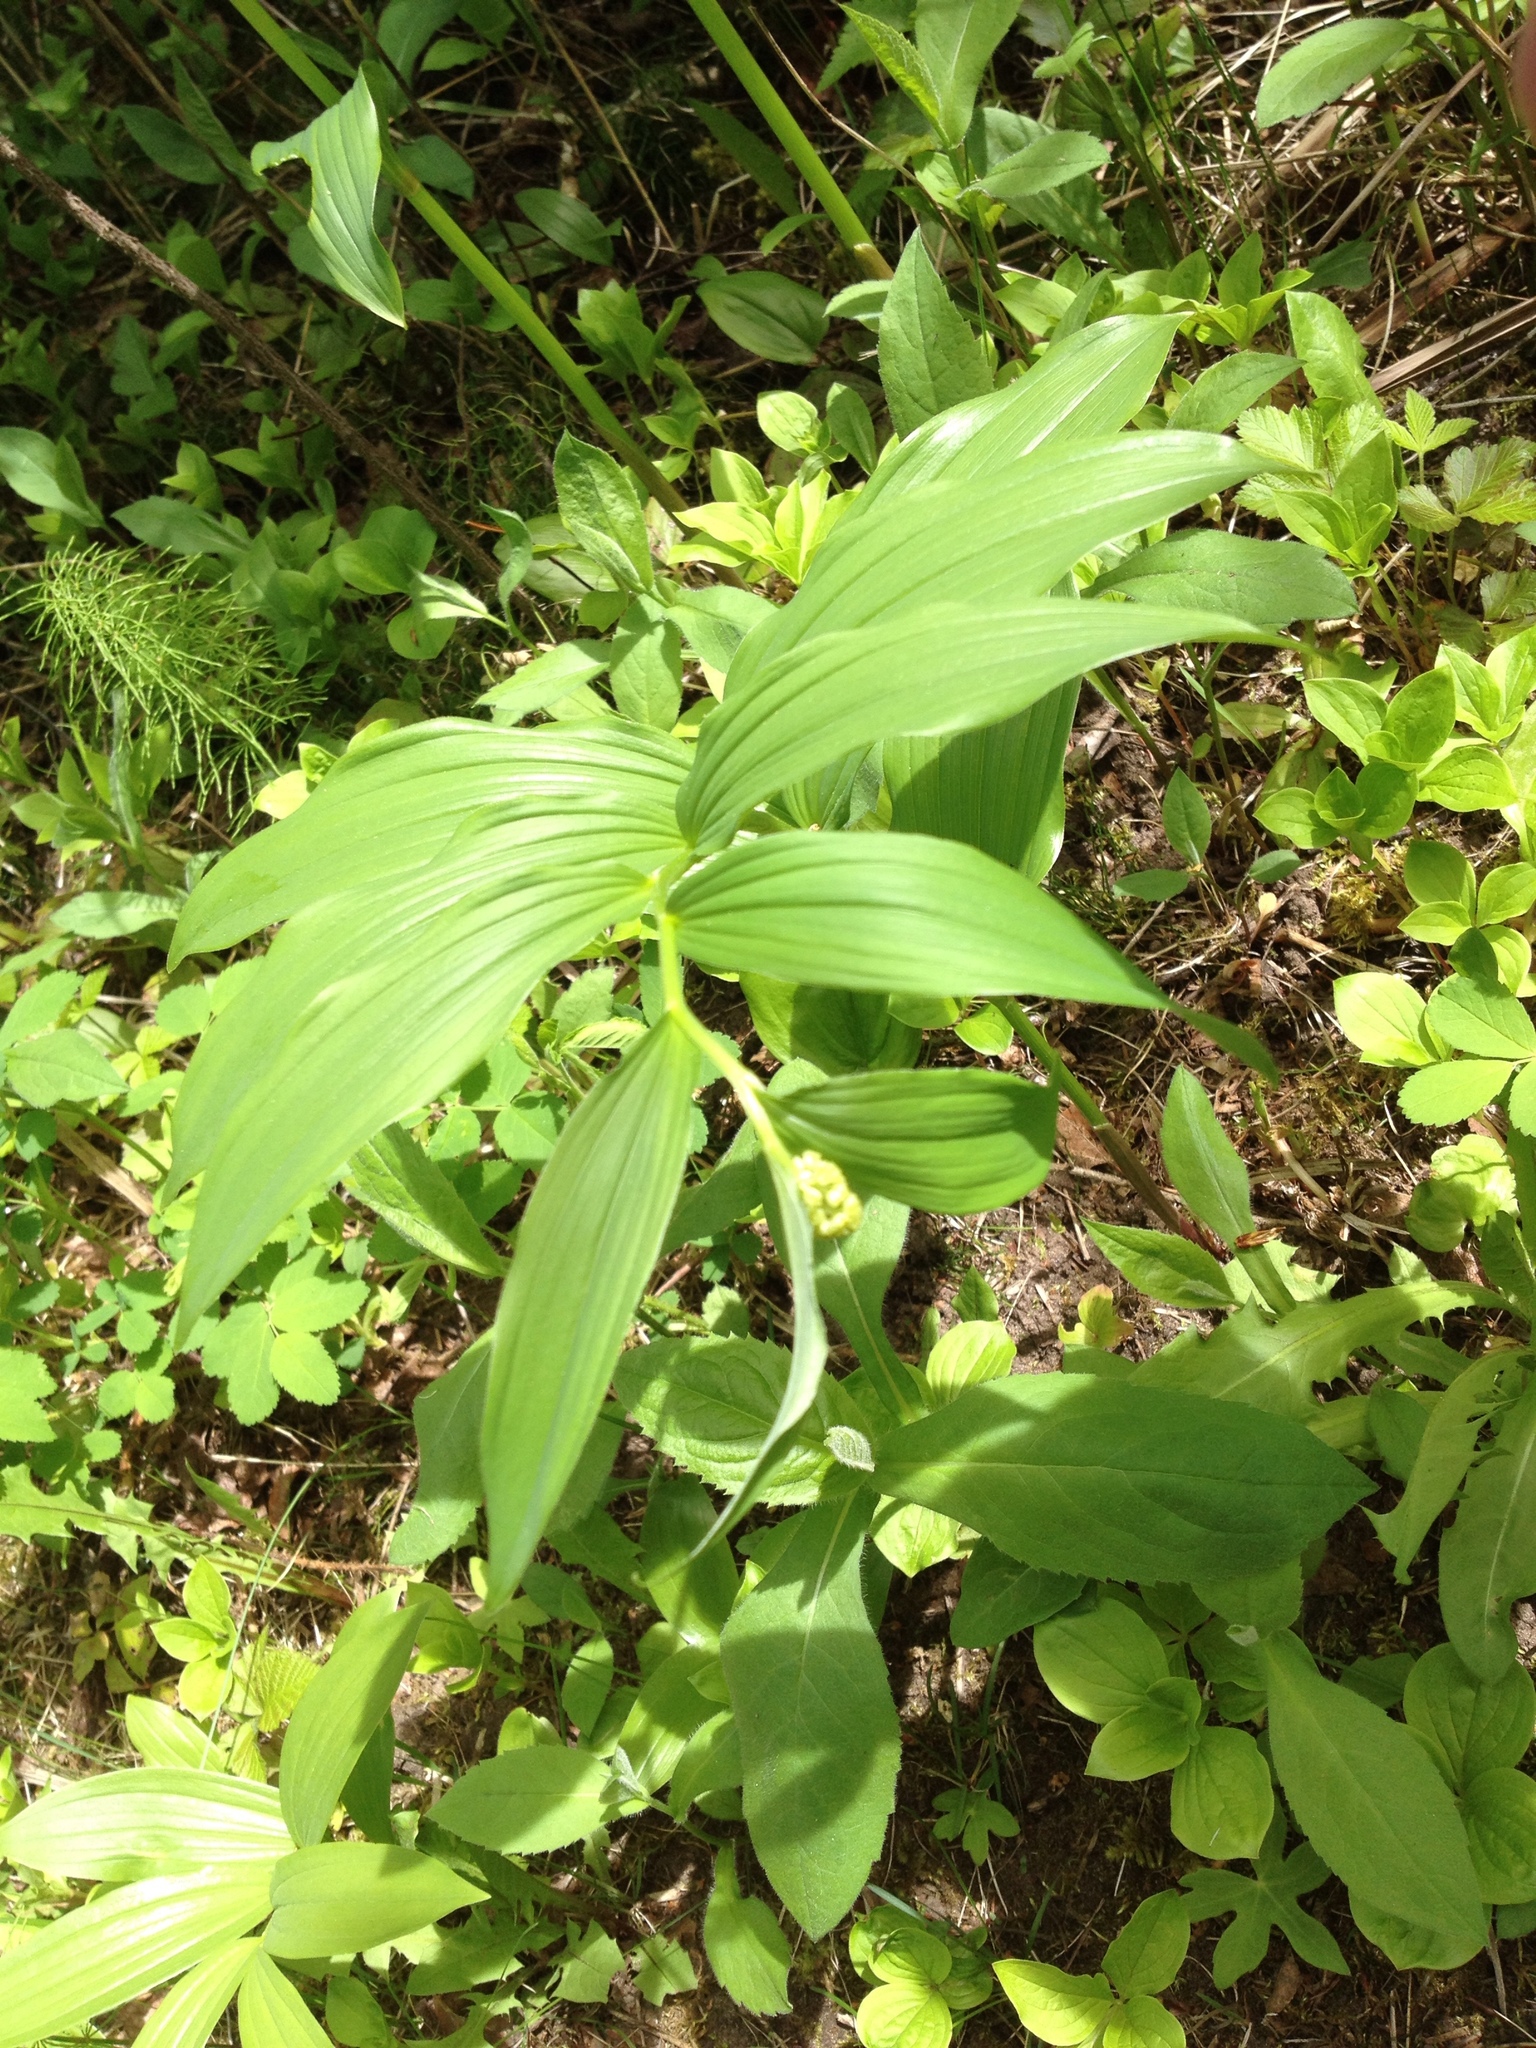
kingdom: Plantae
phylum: Tracheophyta
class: Liliopsida
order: Asparagales
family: Asparagaceae
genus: Maianthemum
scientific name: Maianthemum racemosum
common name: False spikenard
